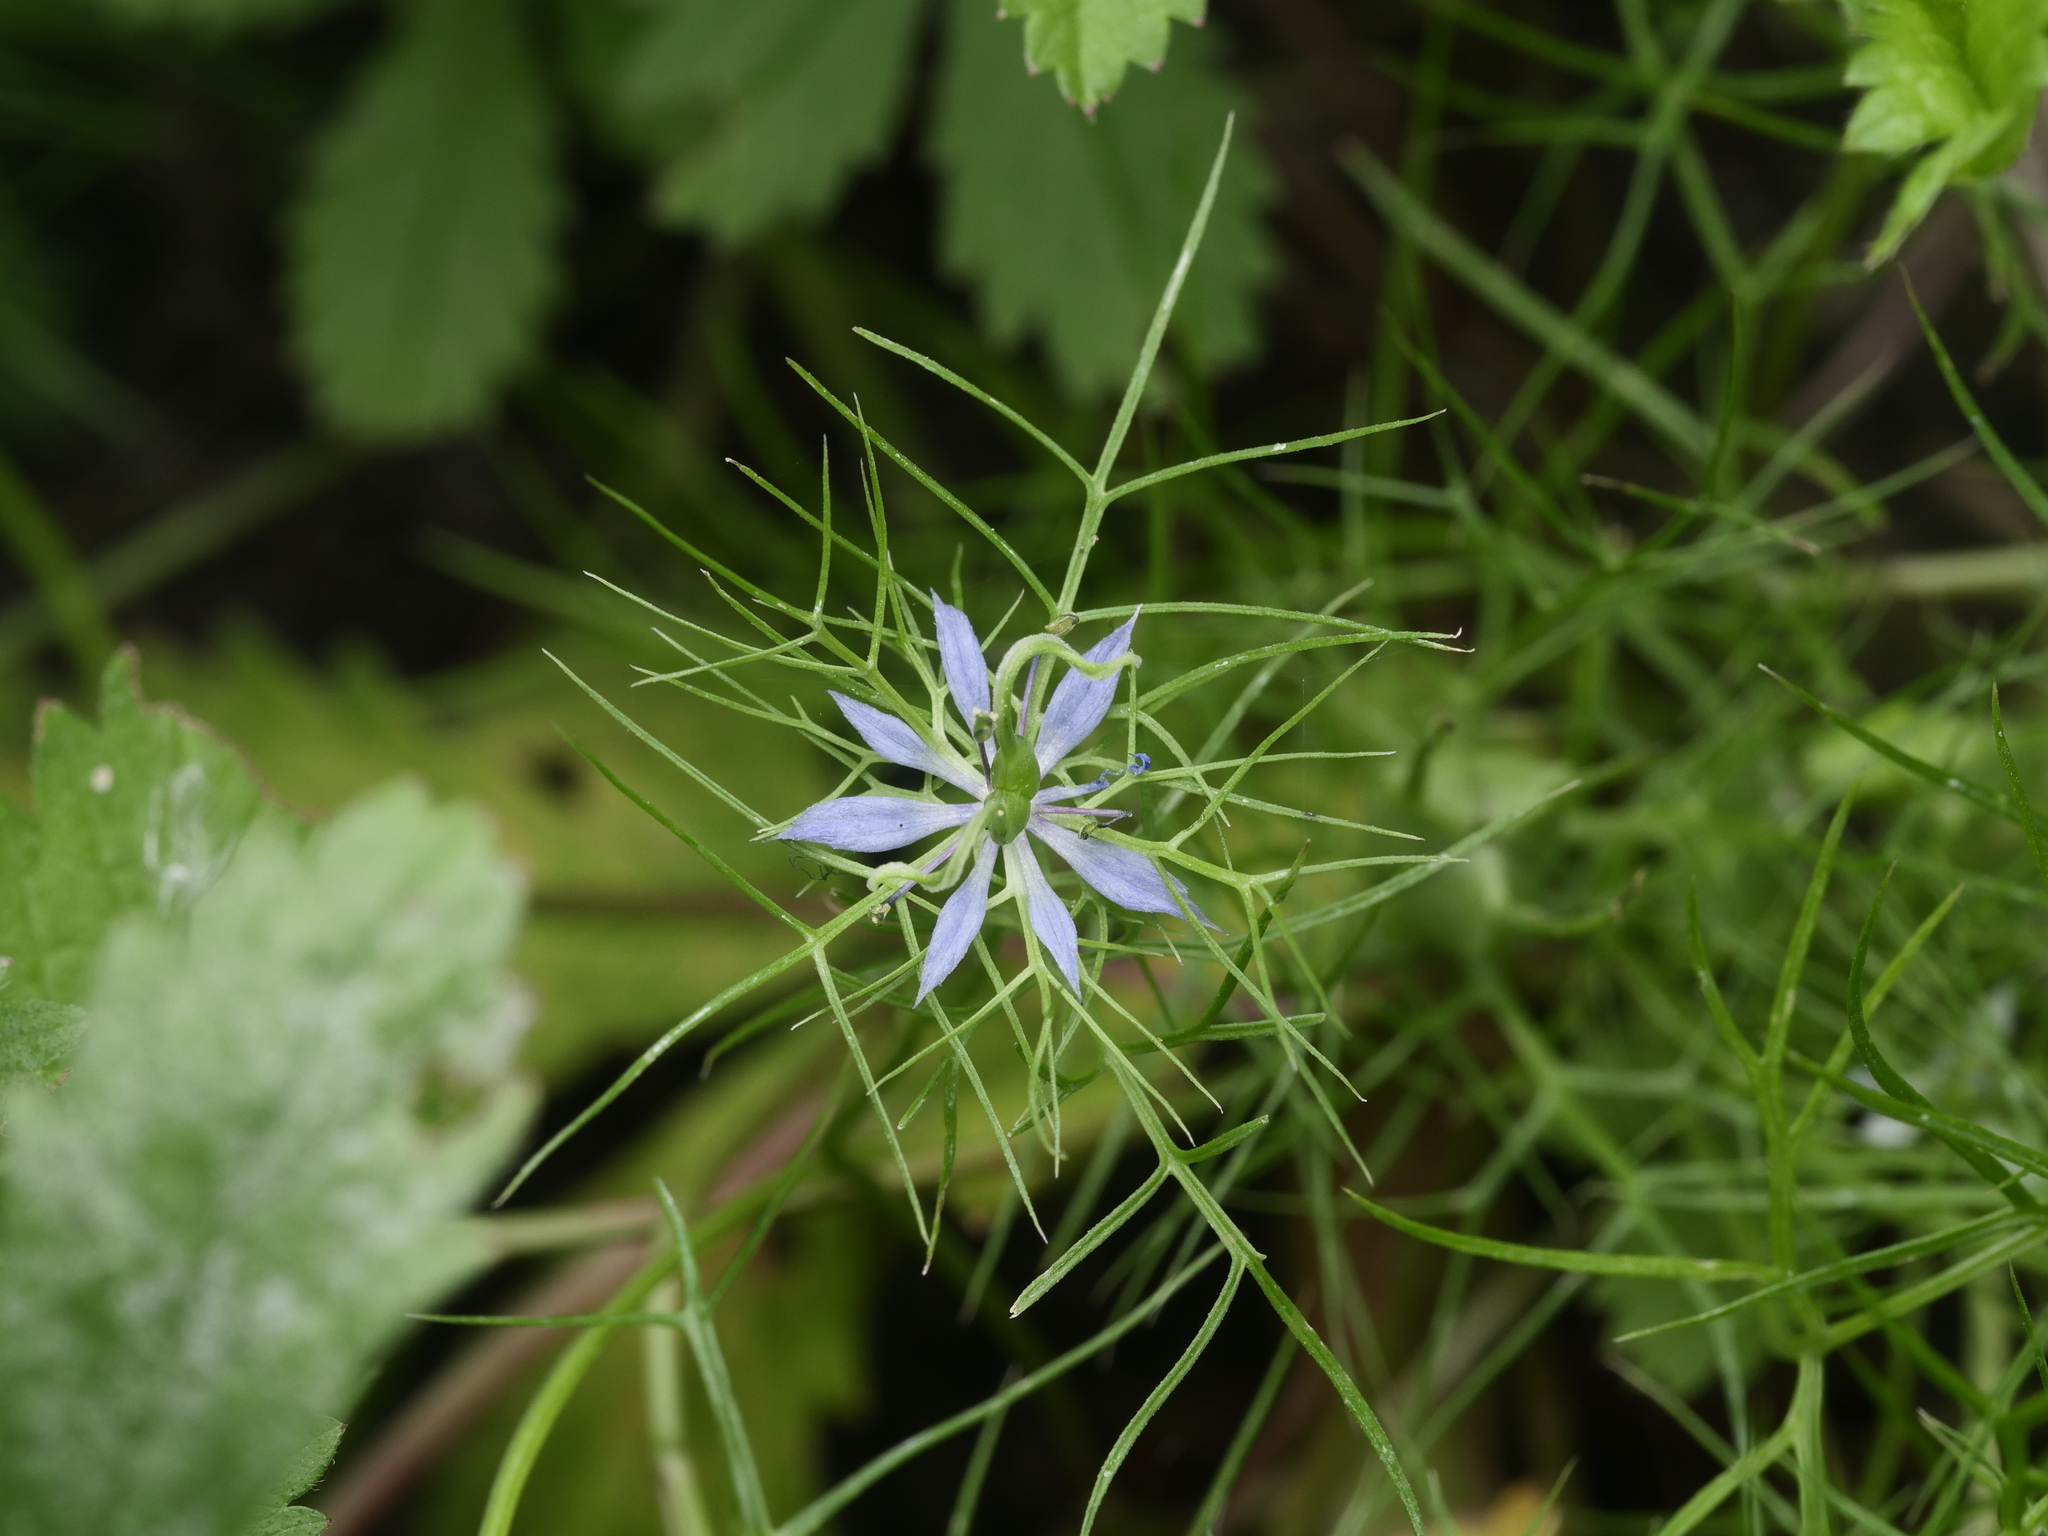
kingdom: Plantae
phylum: Tracheophyta
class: Magnoliopsida
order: Ranunculales
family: Ranunculaceae
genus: Nigella
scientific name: Nigella damascena
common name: Love-in-a-mist
